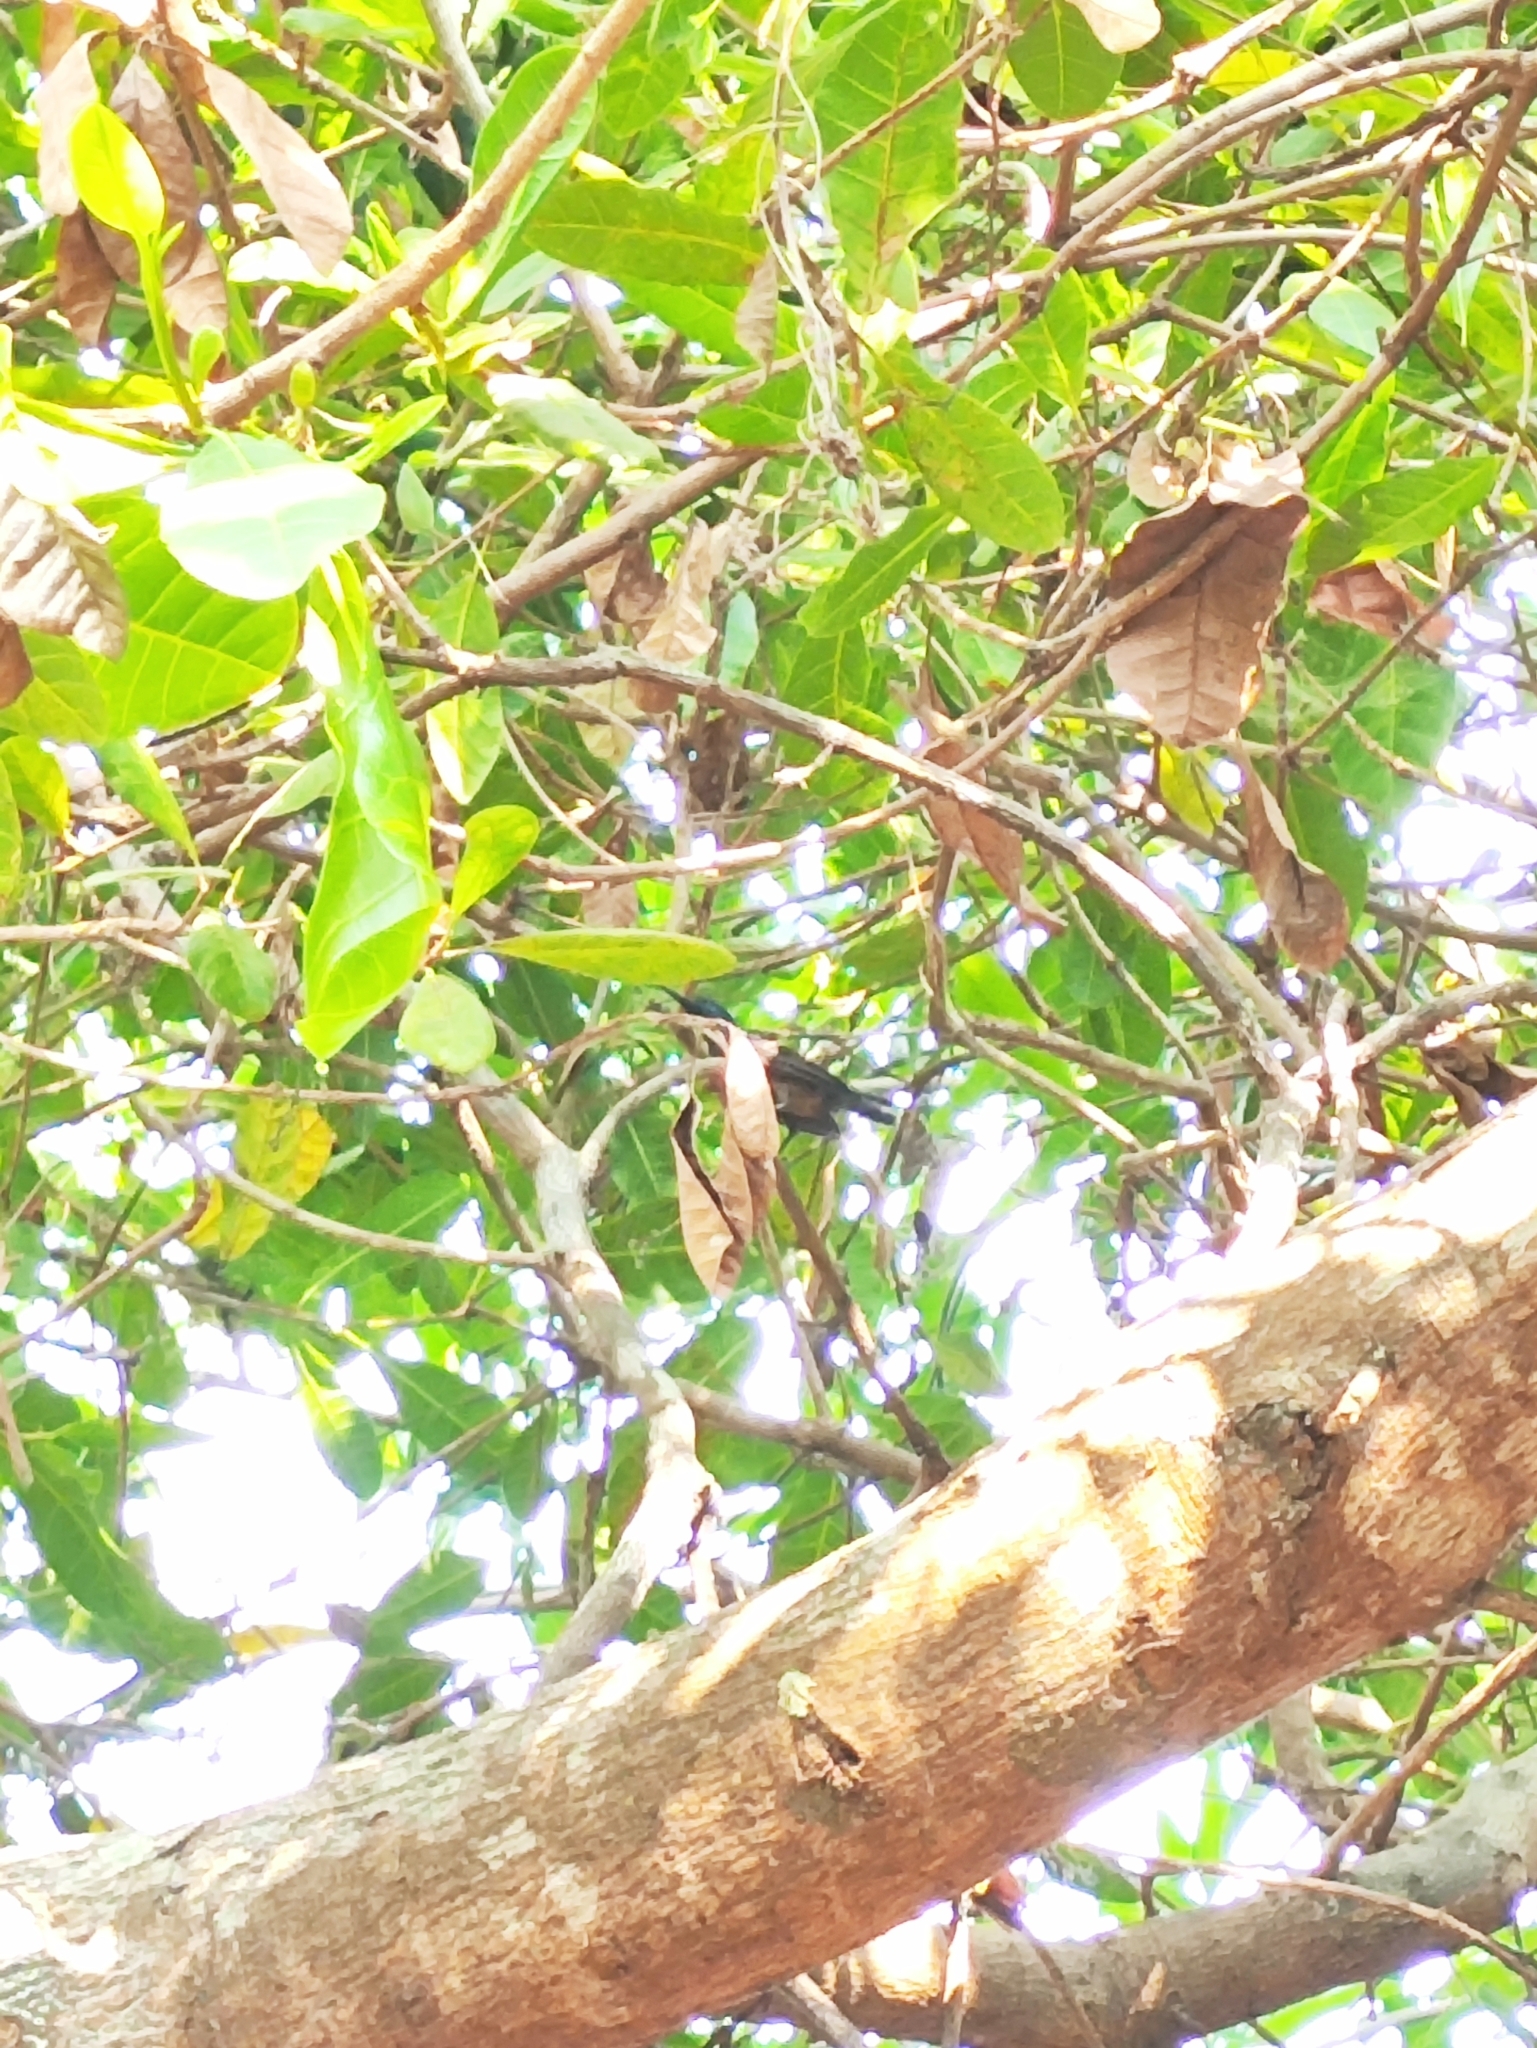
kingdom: Animalia
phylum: Chordata
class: Aves
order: Passeriformes
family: Nectariniidae
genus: Cinnyris
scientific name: Cinnyris lotenius
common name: Loten's sunbird
